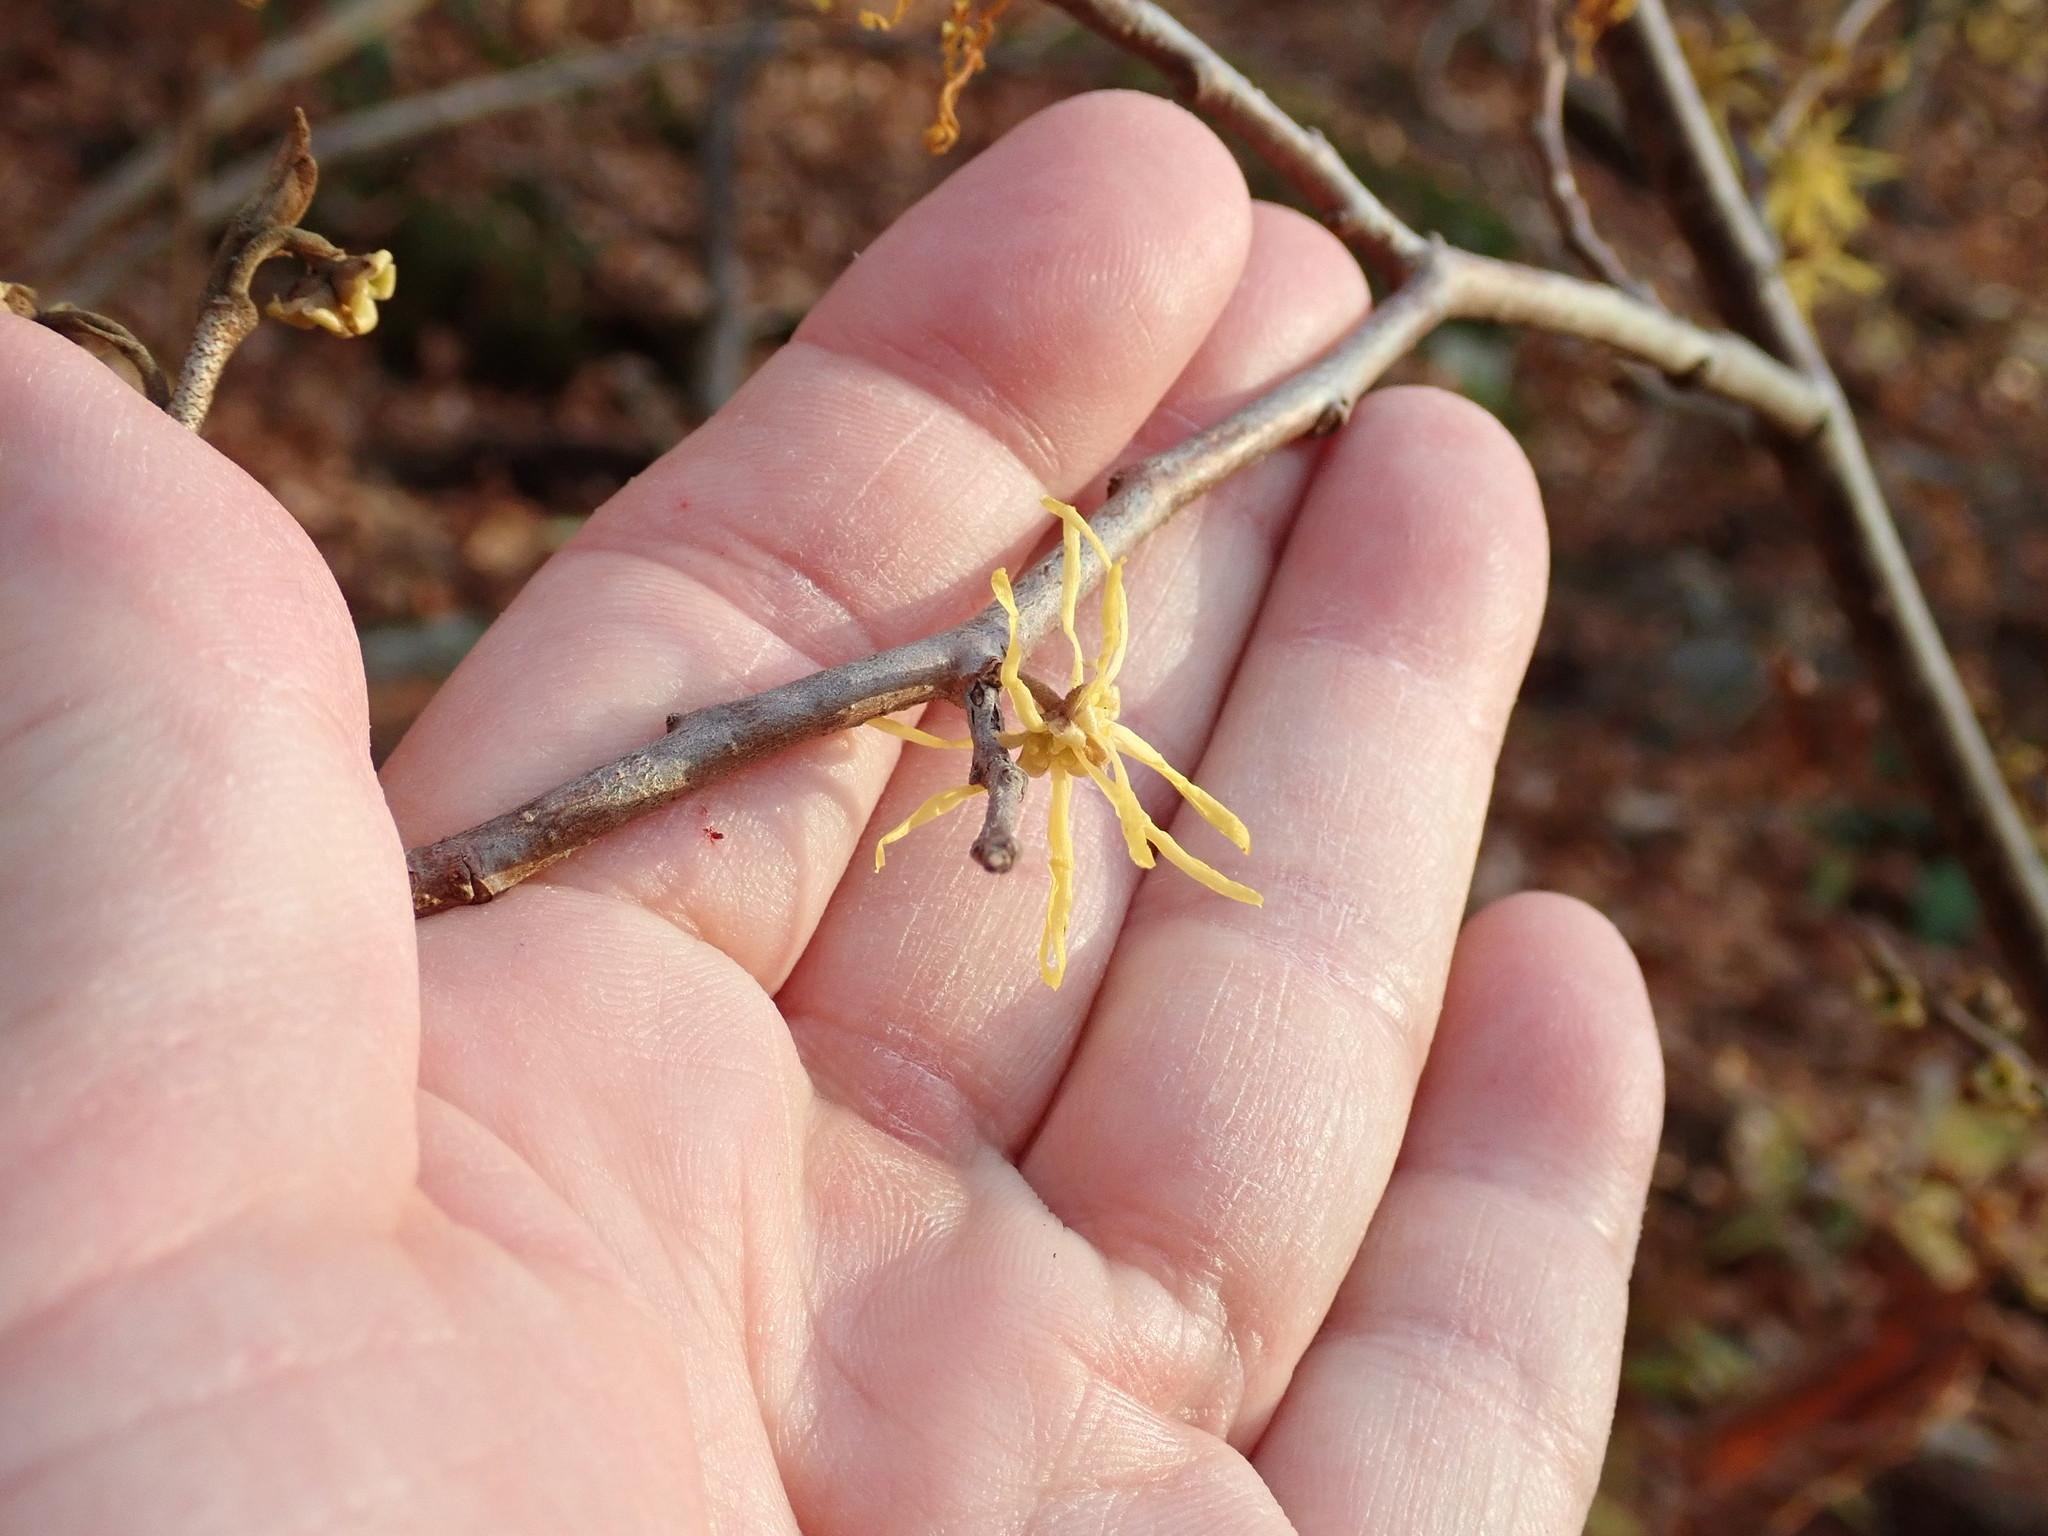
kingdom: Plantae
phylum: Tracheophyta
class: Magnoliopsida
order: Saxifragales
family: Hamamelidaceae
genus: Hamamelis
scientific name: Hamamelis virginiana
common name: Witch-hazel
